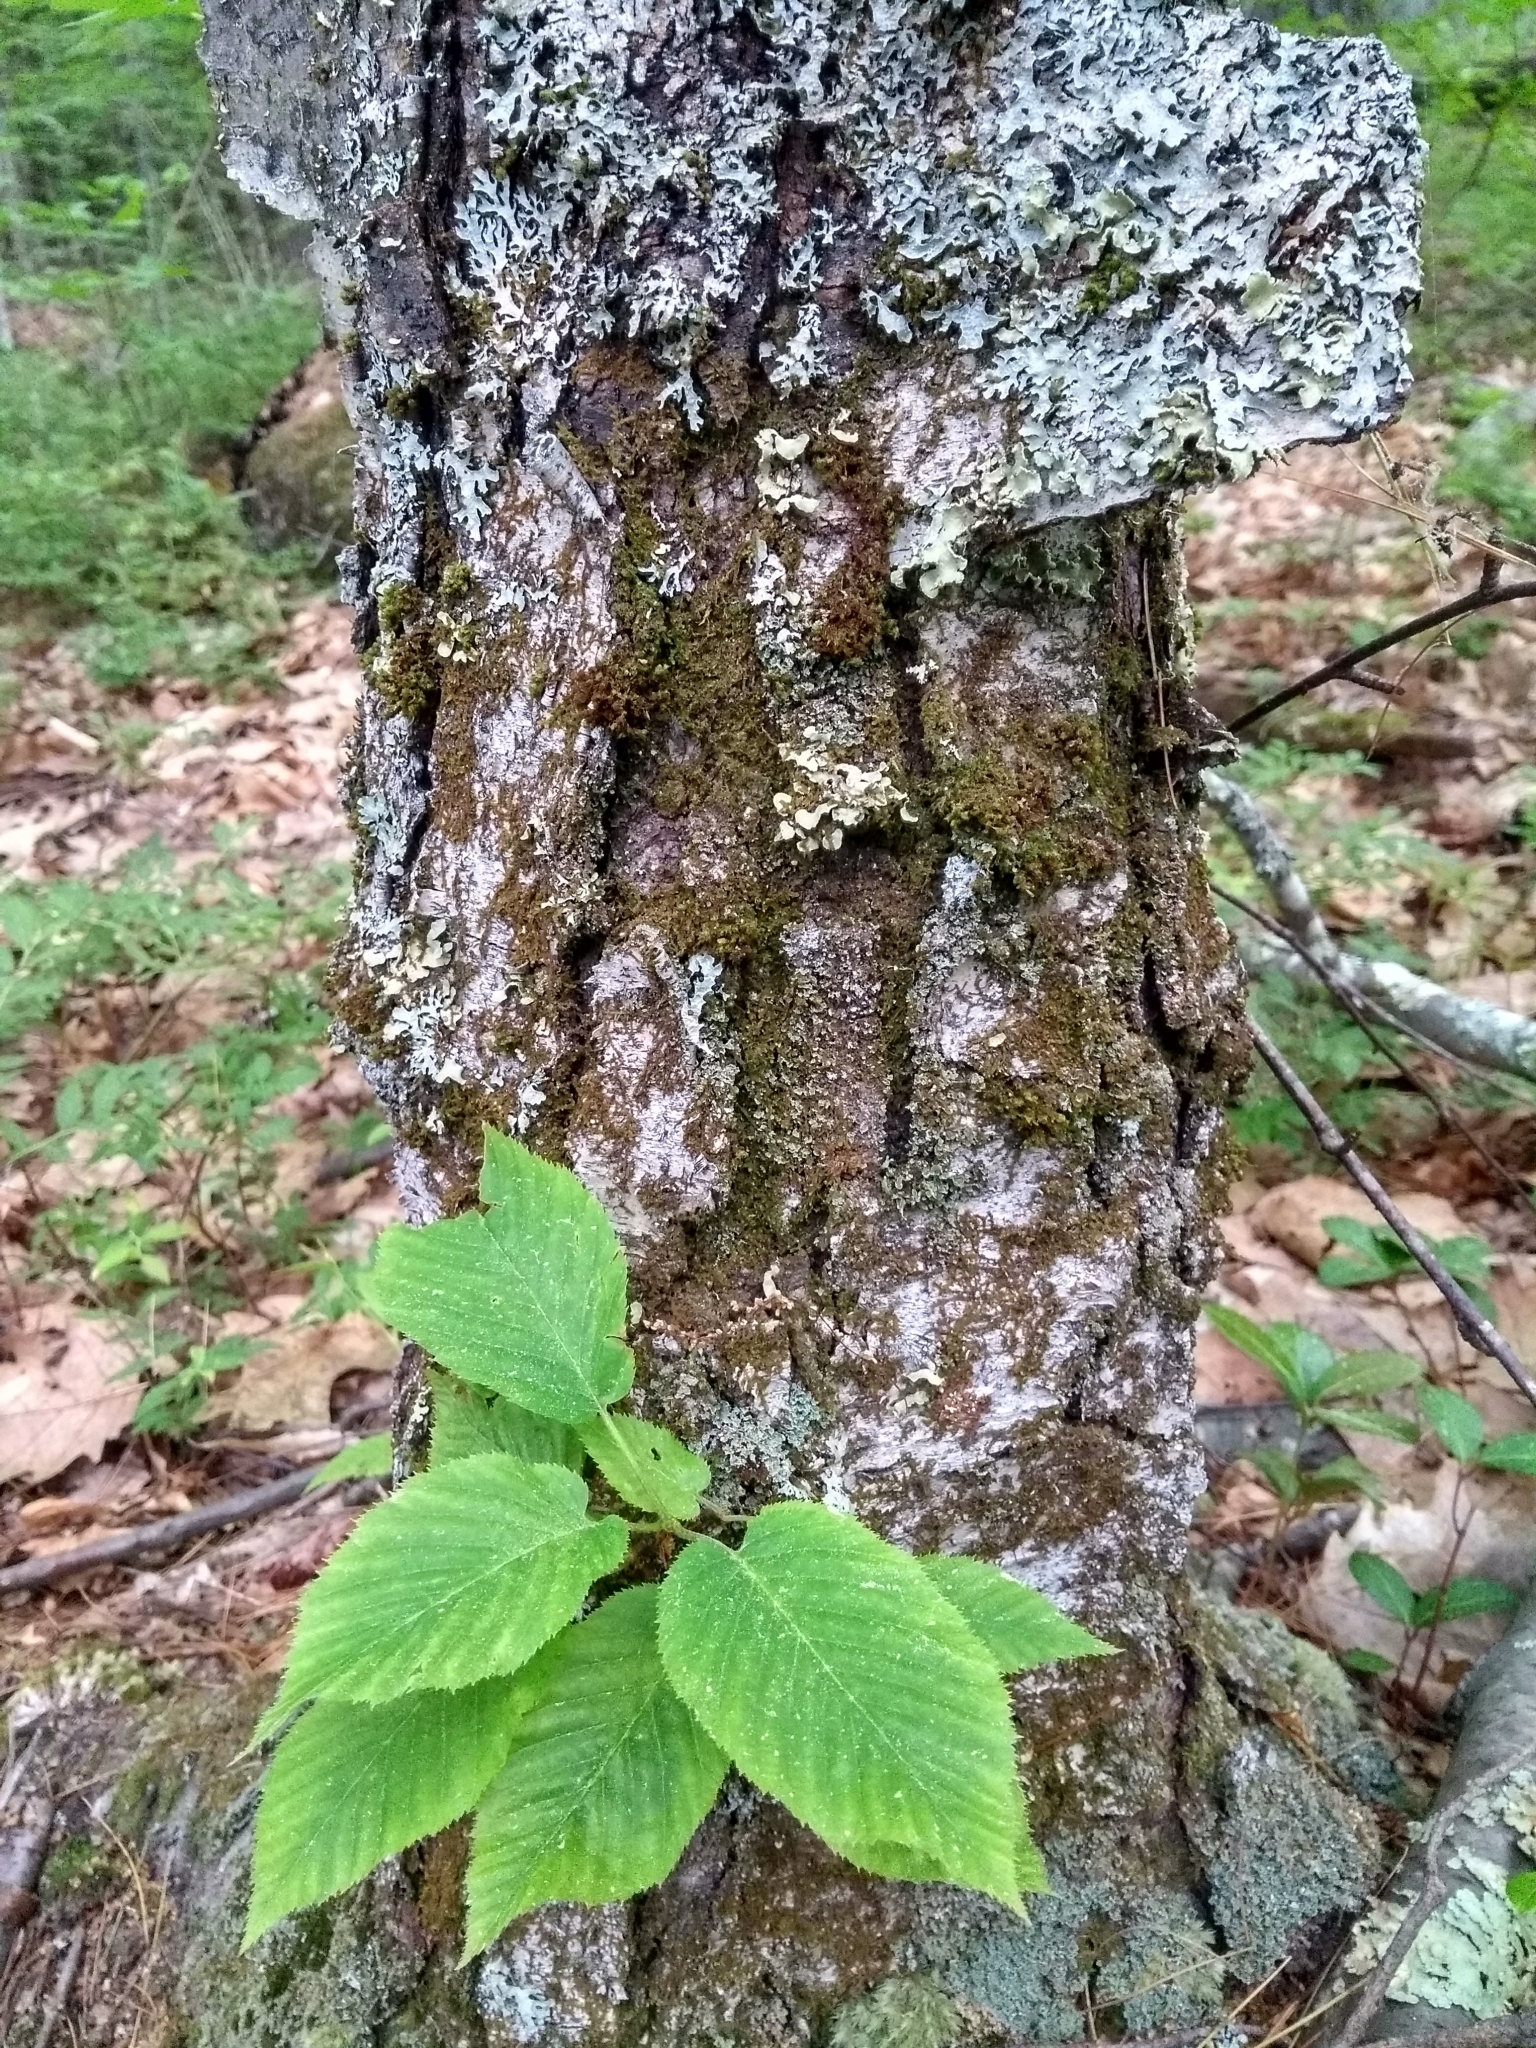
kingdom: Plantae
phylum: Tracheophyta
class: Magnoliopsida
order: Fagales
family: Betulaceae
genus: Betula
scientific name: Betula lenta
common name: Black birch
